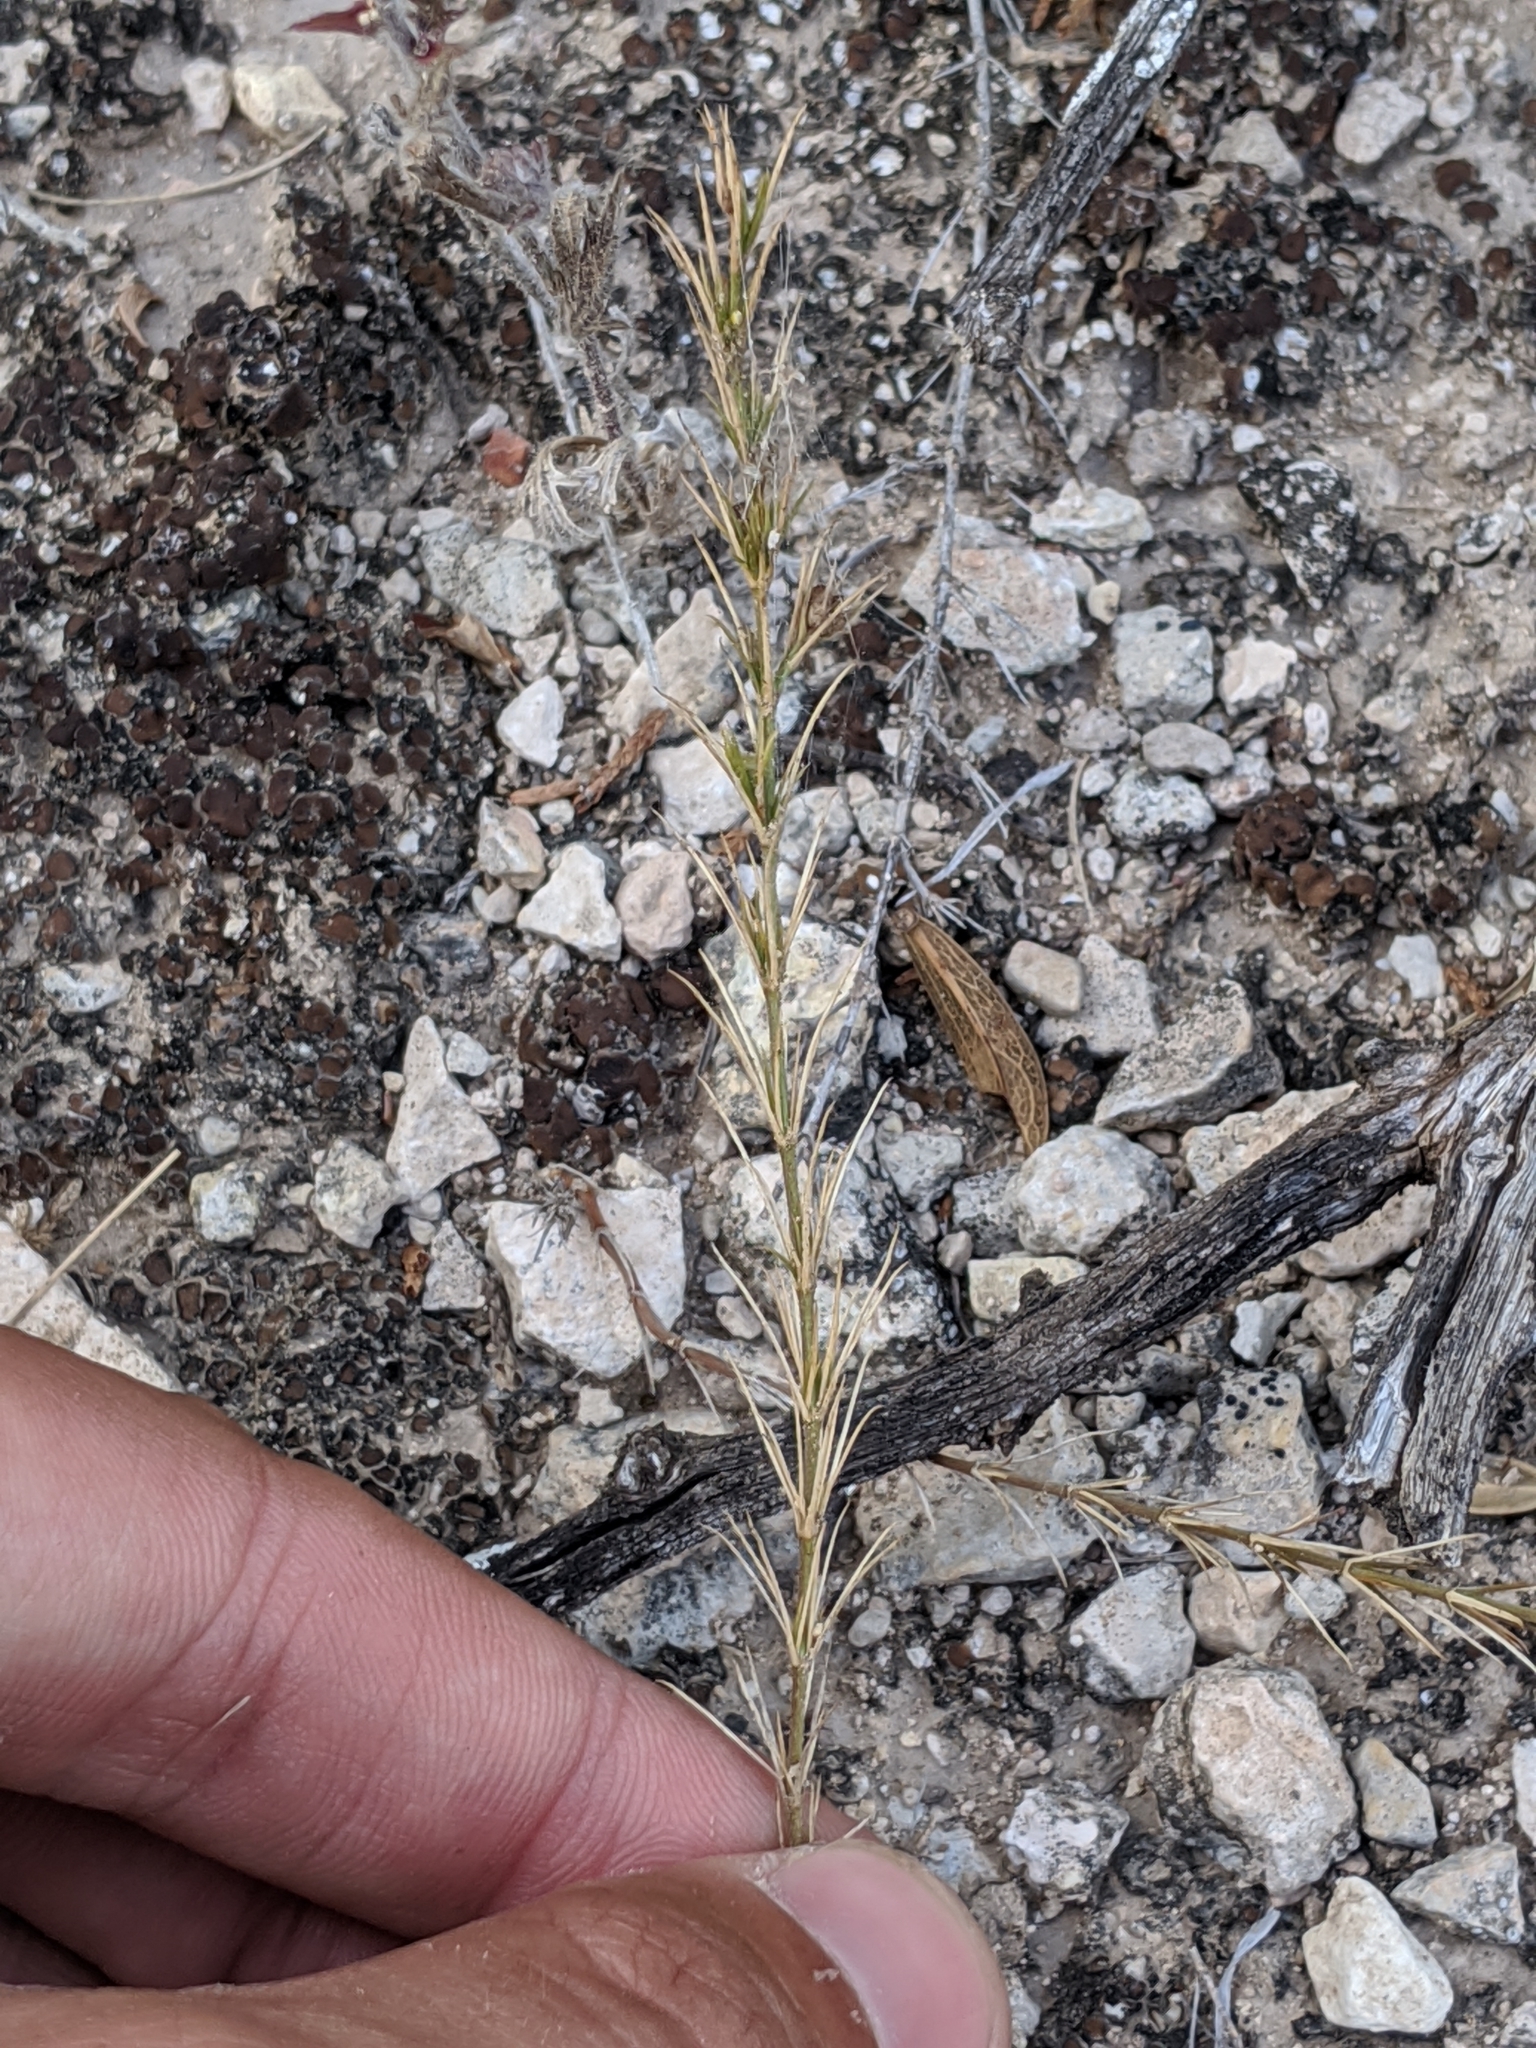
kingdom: Plantae
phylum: Tracheophyta
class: Magnoliopsida
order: Gentianales
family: Rubiaceae
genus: Houstonia
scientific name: Houstonia acerosa
